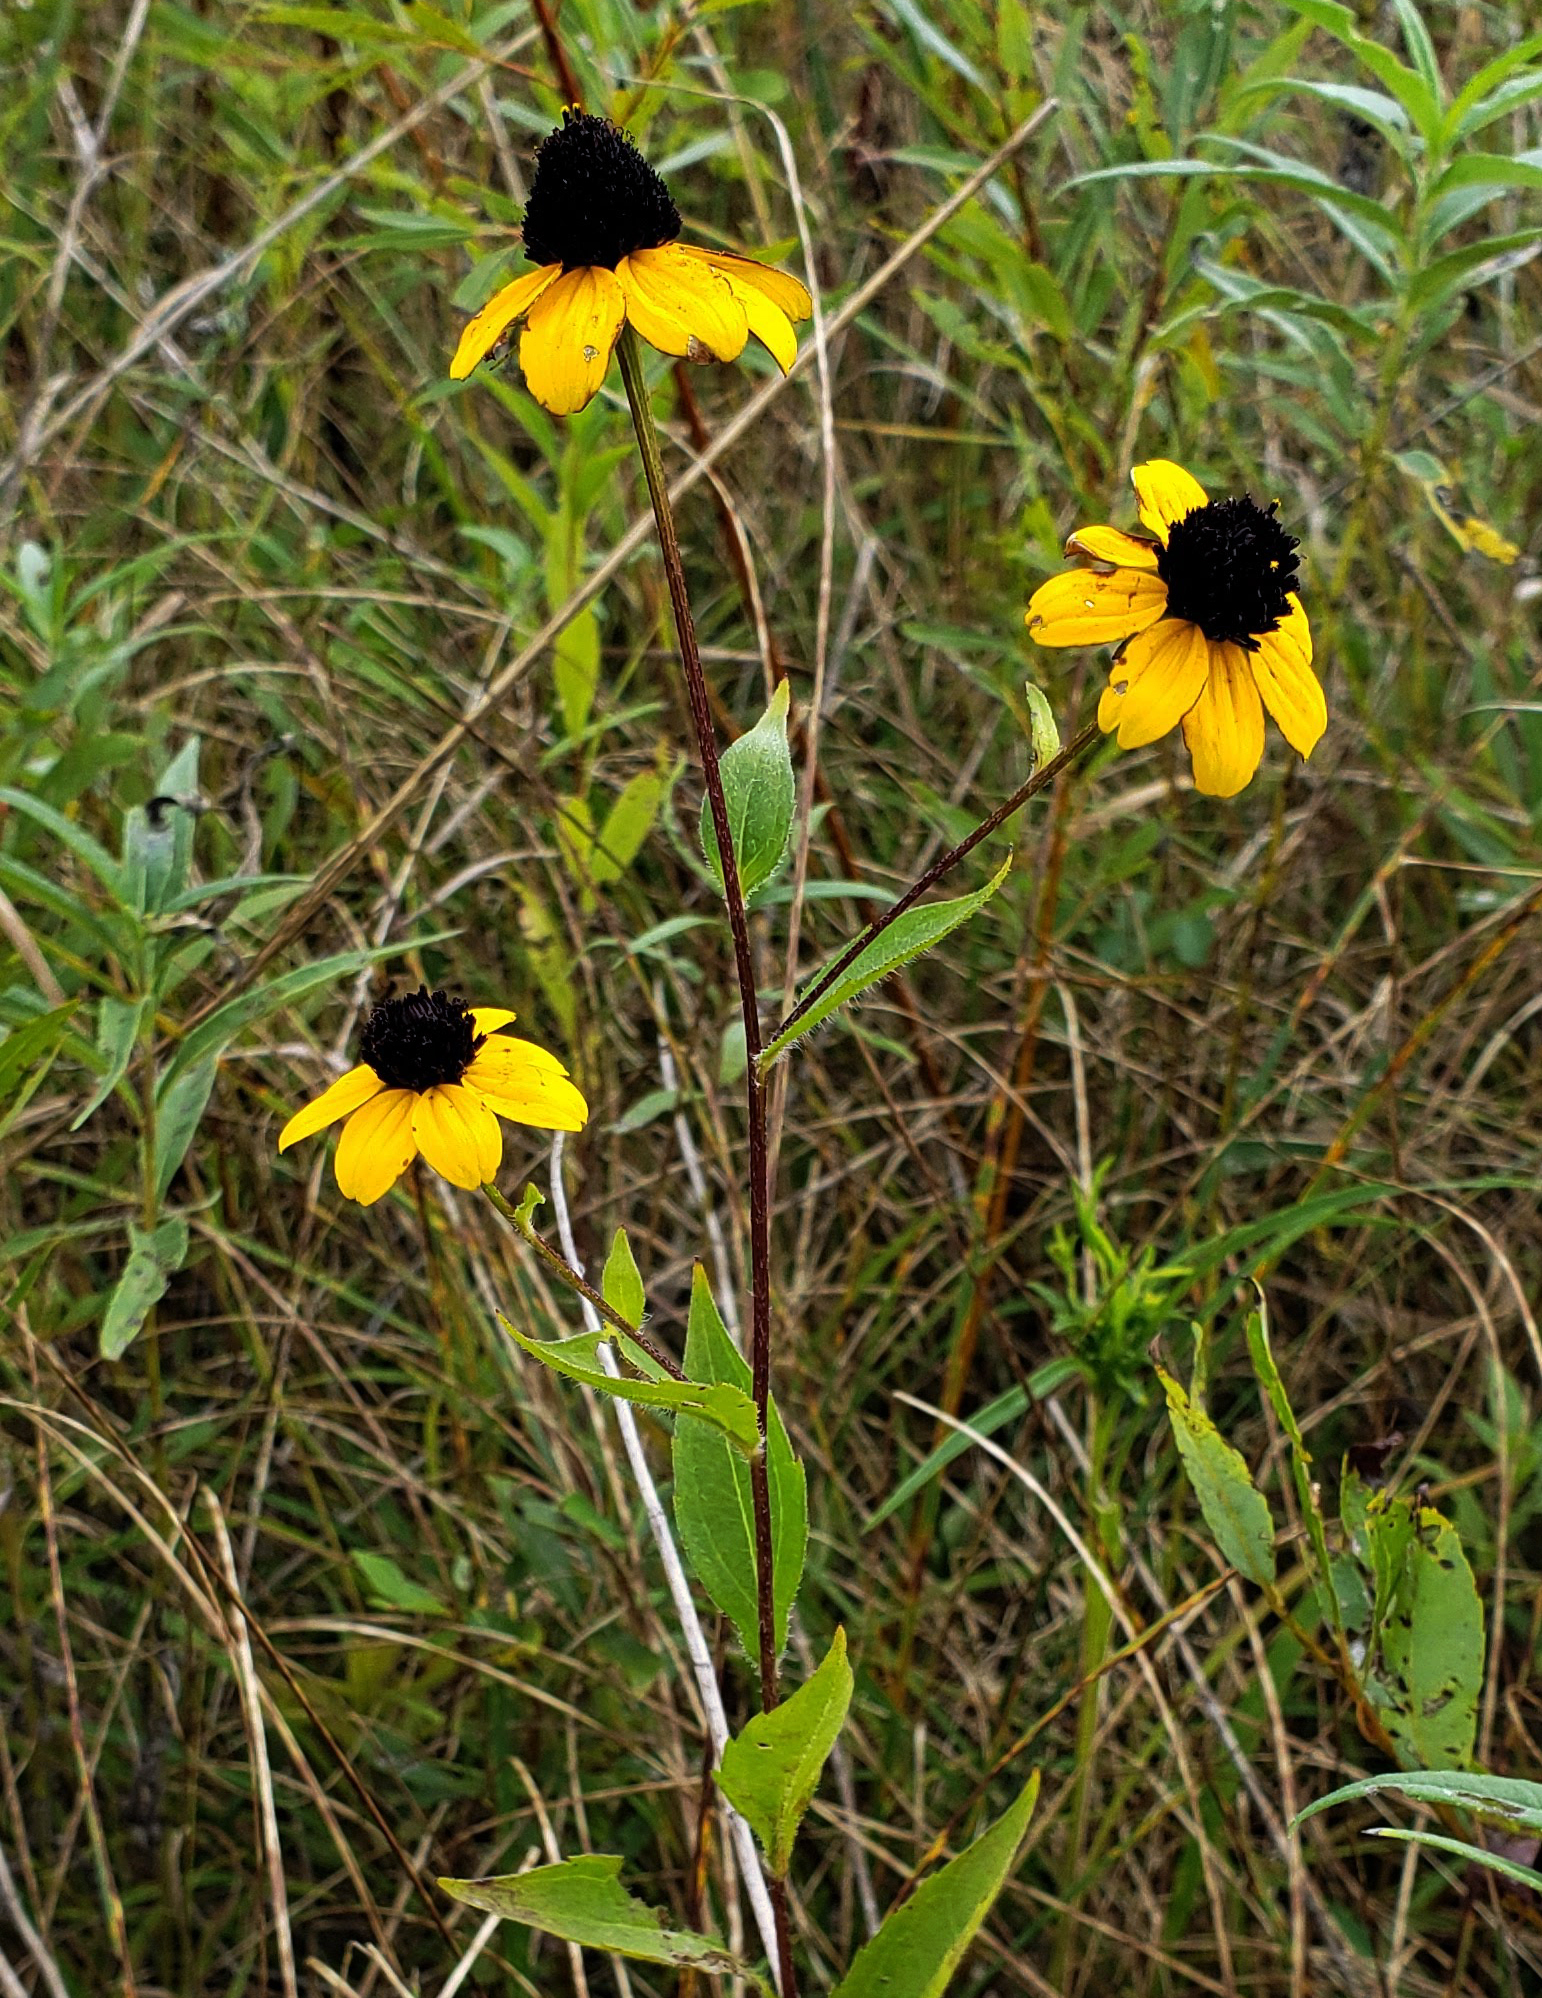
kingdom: Plantae
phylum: Tracheophyta
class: Magnoliopsida
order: Asterales
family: Asteraceae
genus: Rudbeckia
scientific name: Rudbeckia triloba
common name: Thin-leaved coneflower
